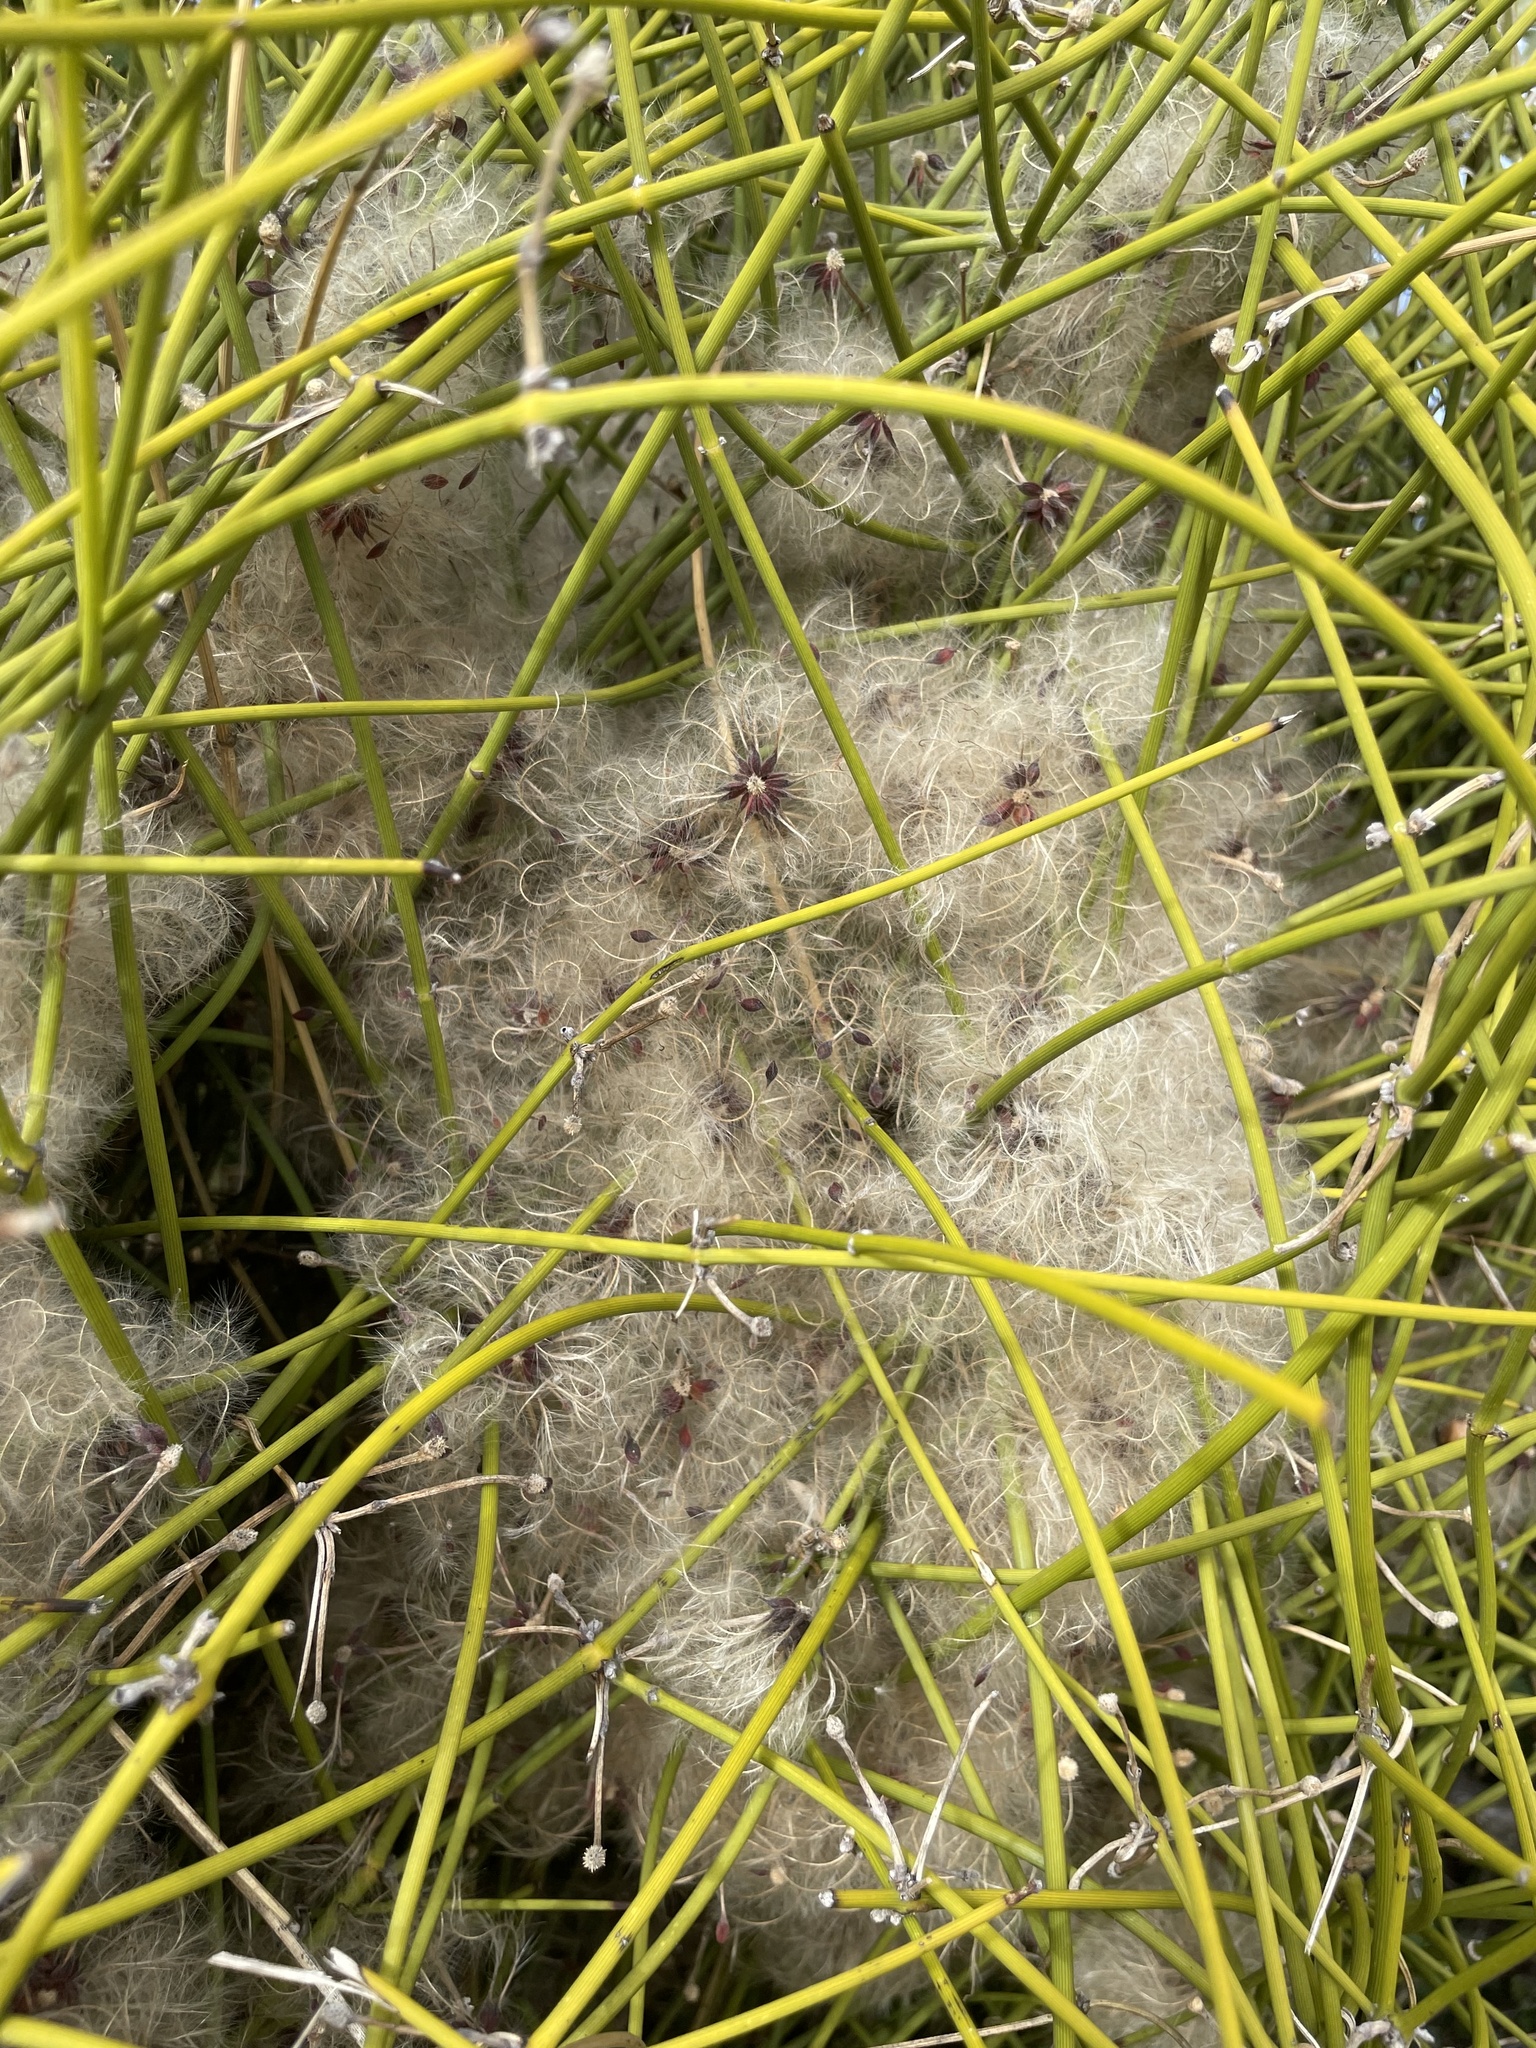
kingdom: Plantae
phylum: Tracheophyta
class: Magnoliopsida
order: Ranunculales
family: Ranunculaceae
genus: Clematis
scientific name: Clematis afoliata
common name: Rush-stem clematis
